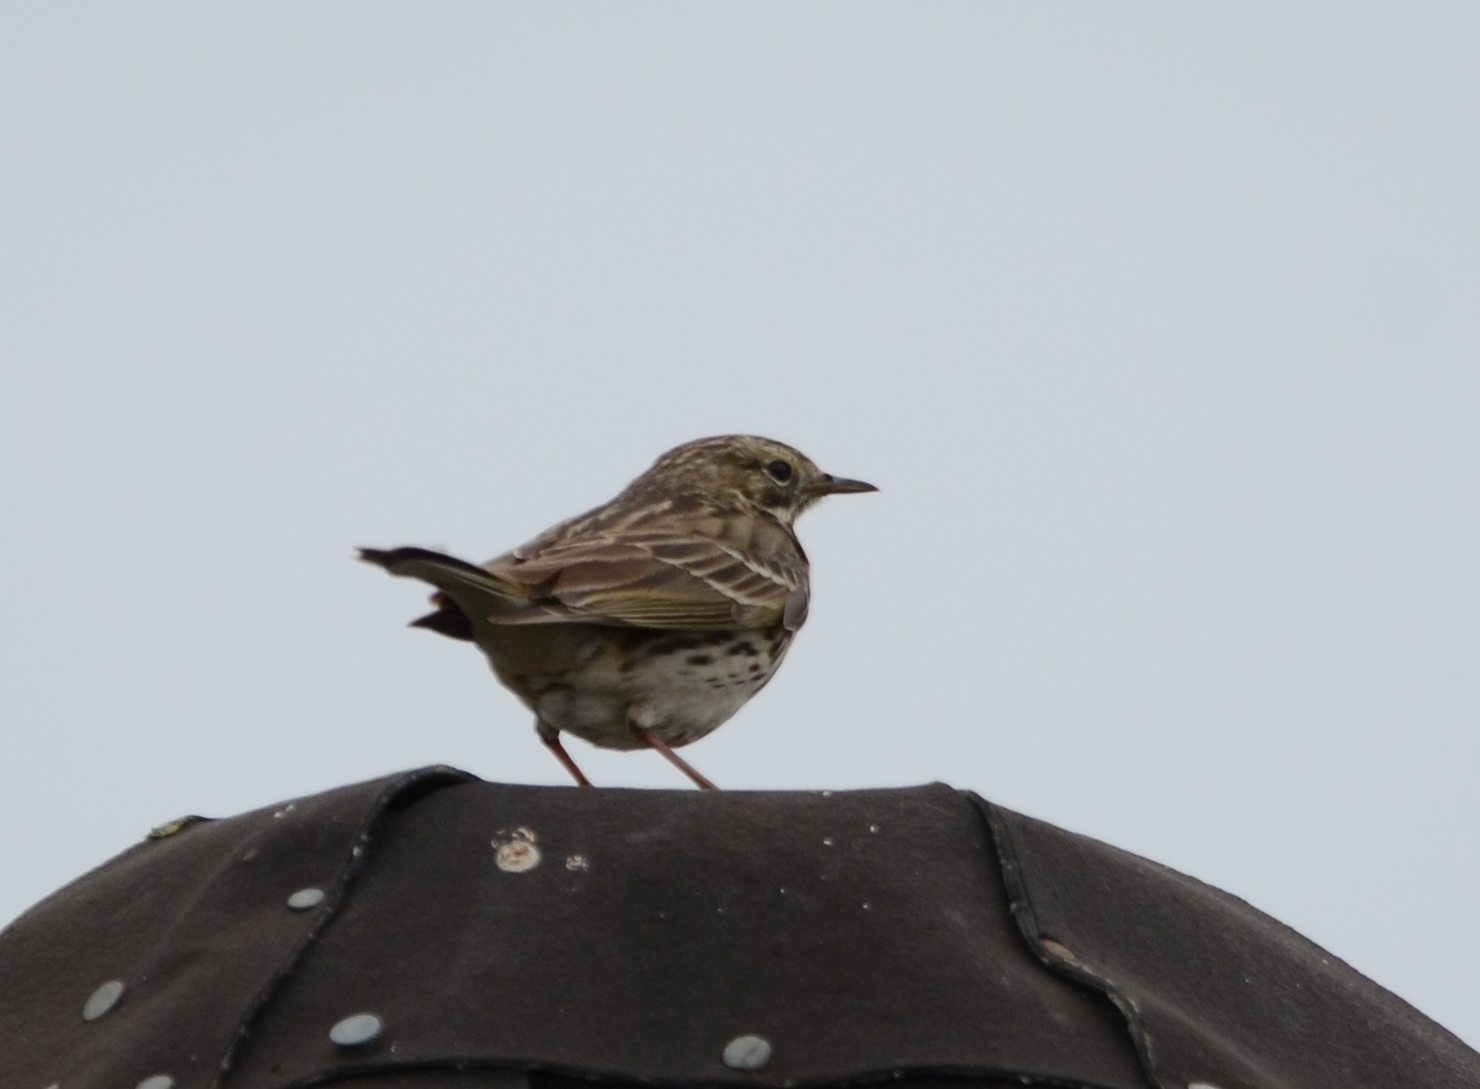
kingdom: Animalia
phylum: Chordata
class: Aves
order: Passeriformes
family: Motacillidae
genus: Anthus
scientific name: Anthus pratensis
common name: Meadow pipit
